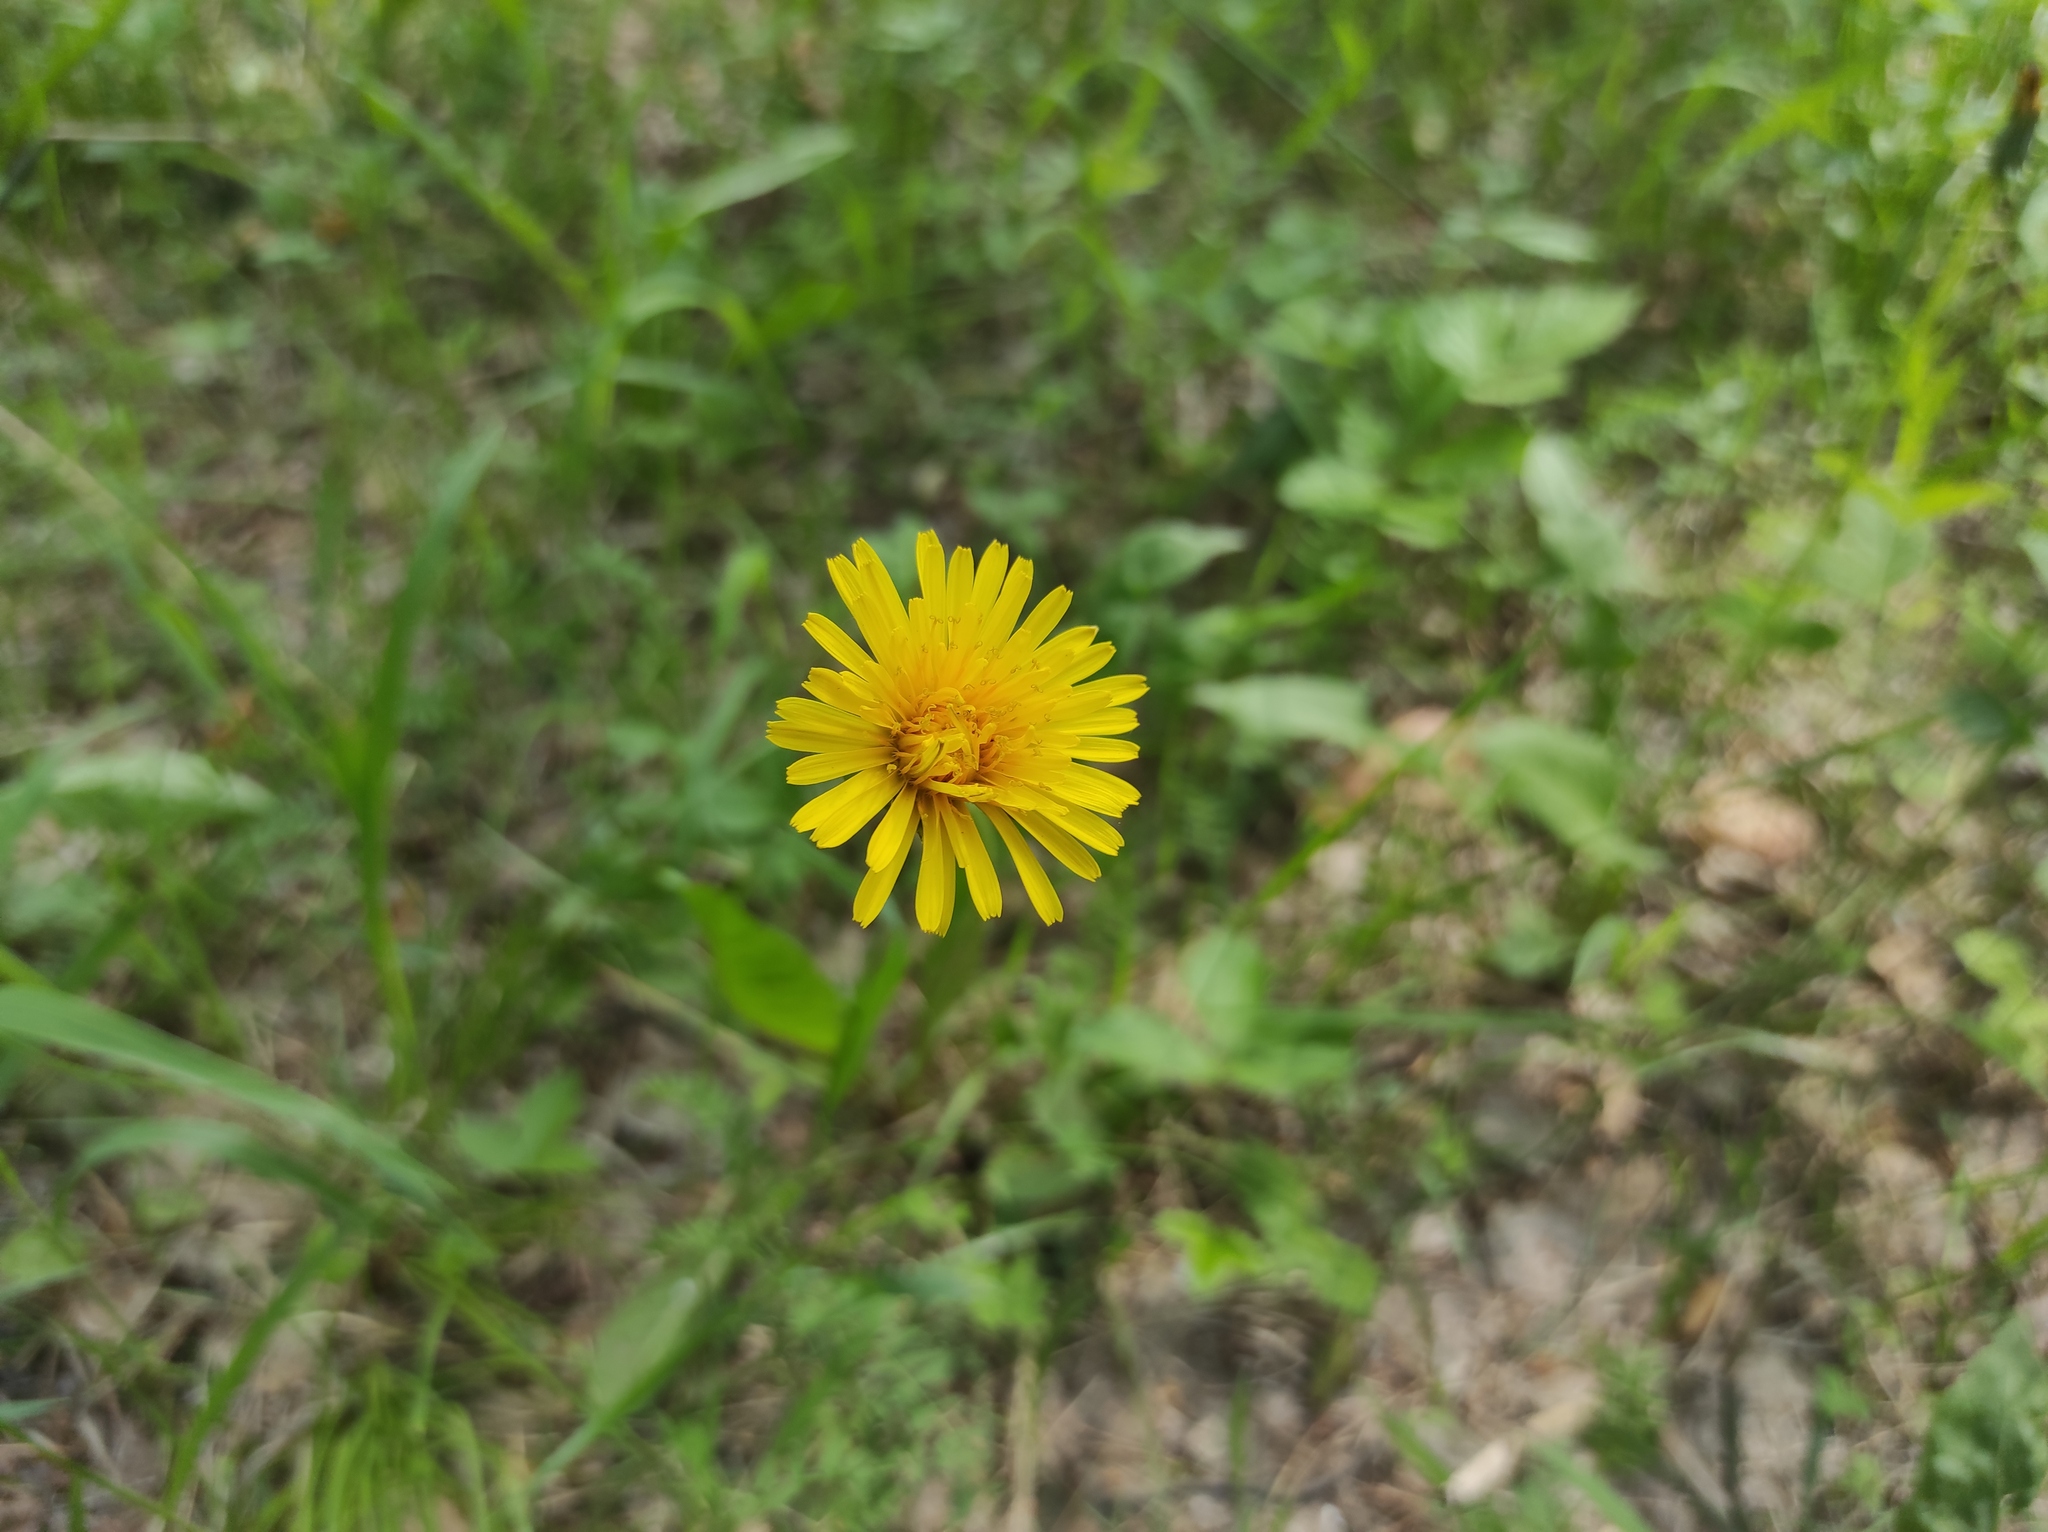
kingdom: Plantae
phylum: Tracheophyta
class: Magnoliopsida
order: Asterales
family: Asteraceae
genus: Taraxacum
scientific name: Taraxacum officinale
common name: Common dandelion
